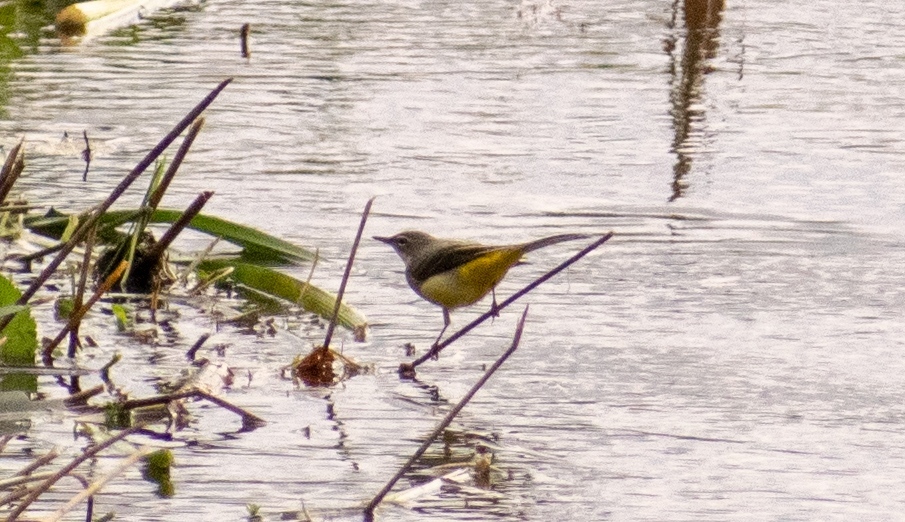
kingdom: Animalia
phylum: Chordata
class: Aves
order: Passeriformes
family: Motacillidae
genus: Motacilla
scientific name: Motacilla cinerea
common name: Grey wagtail
